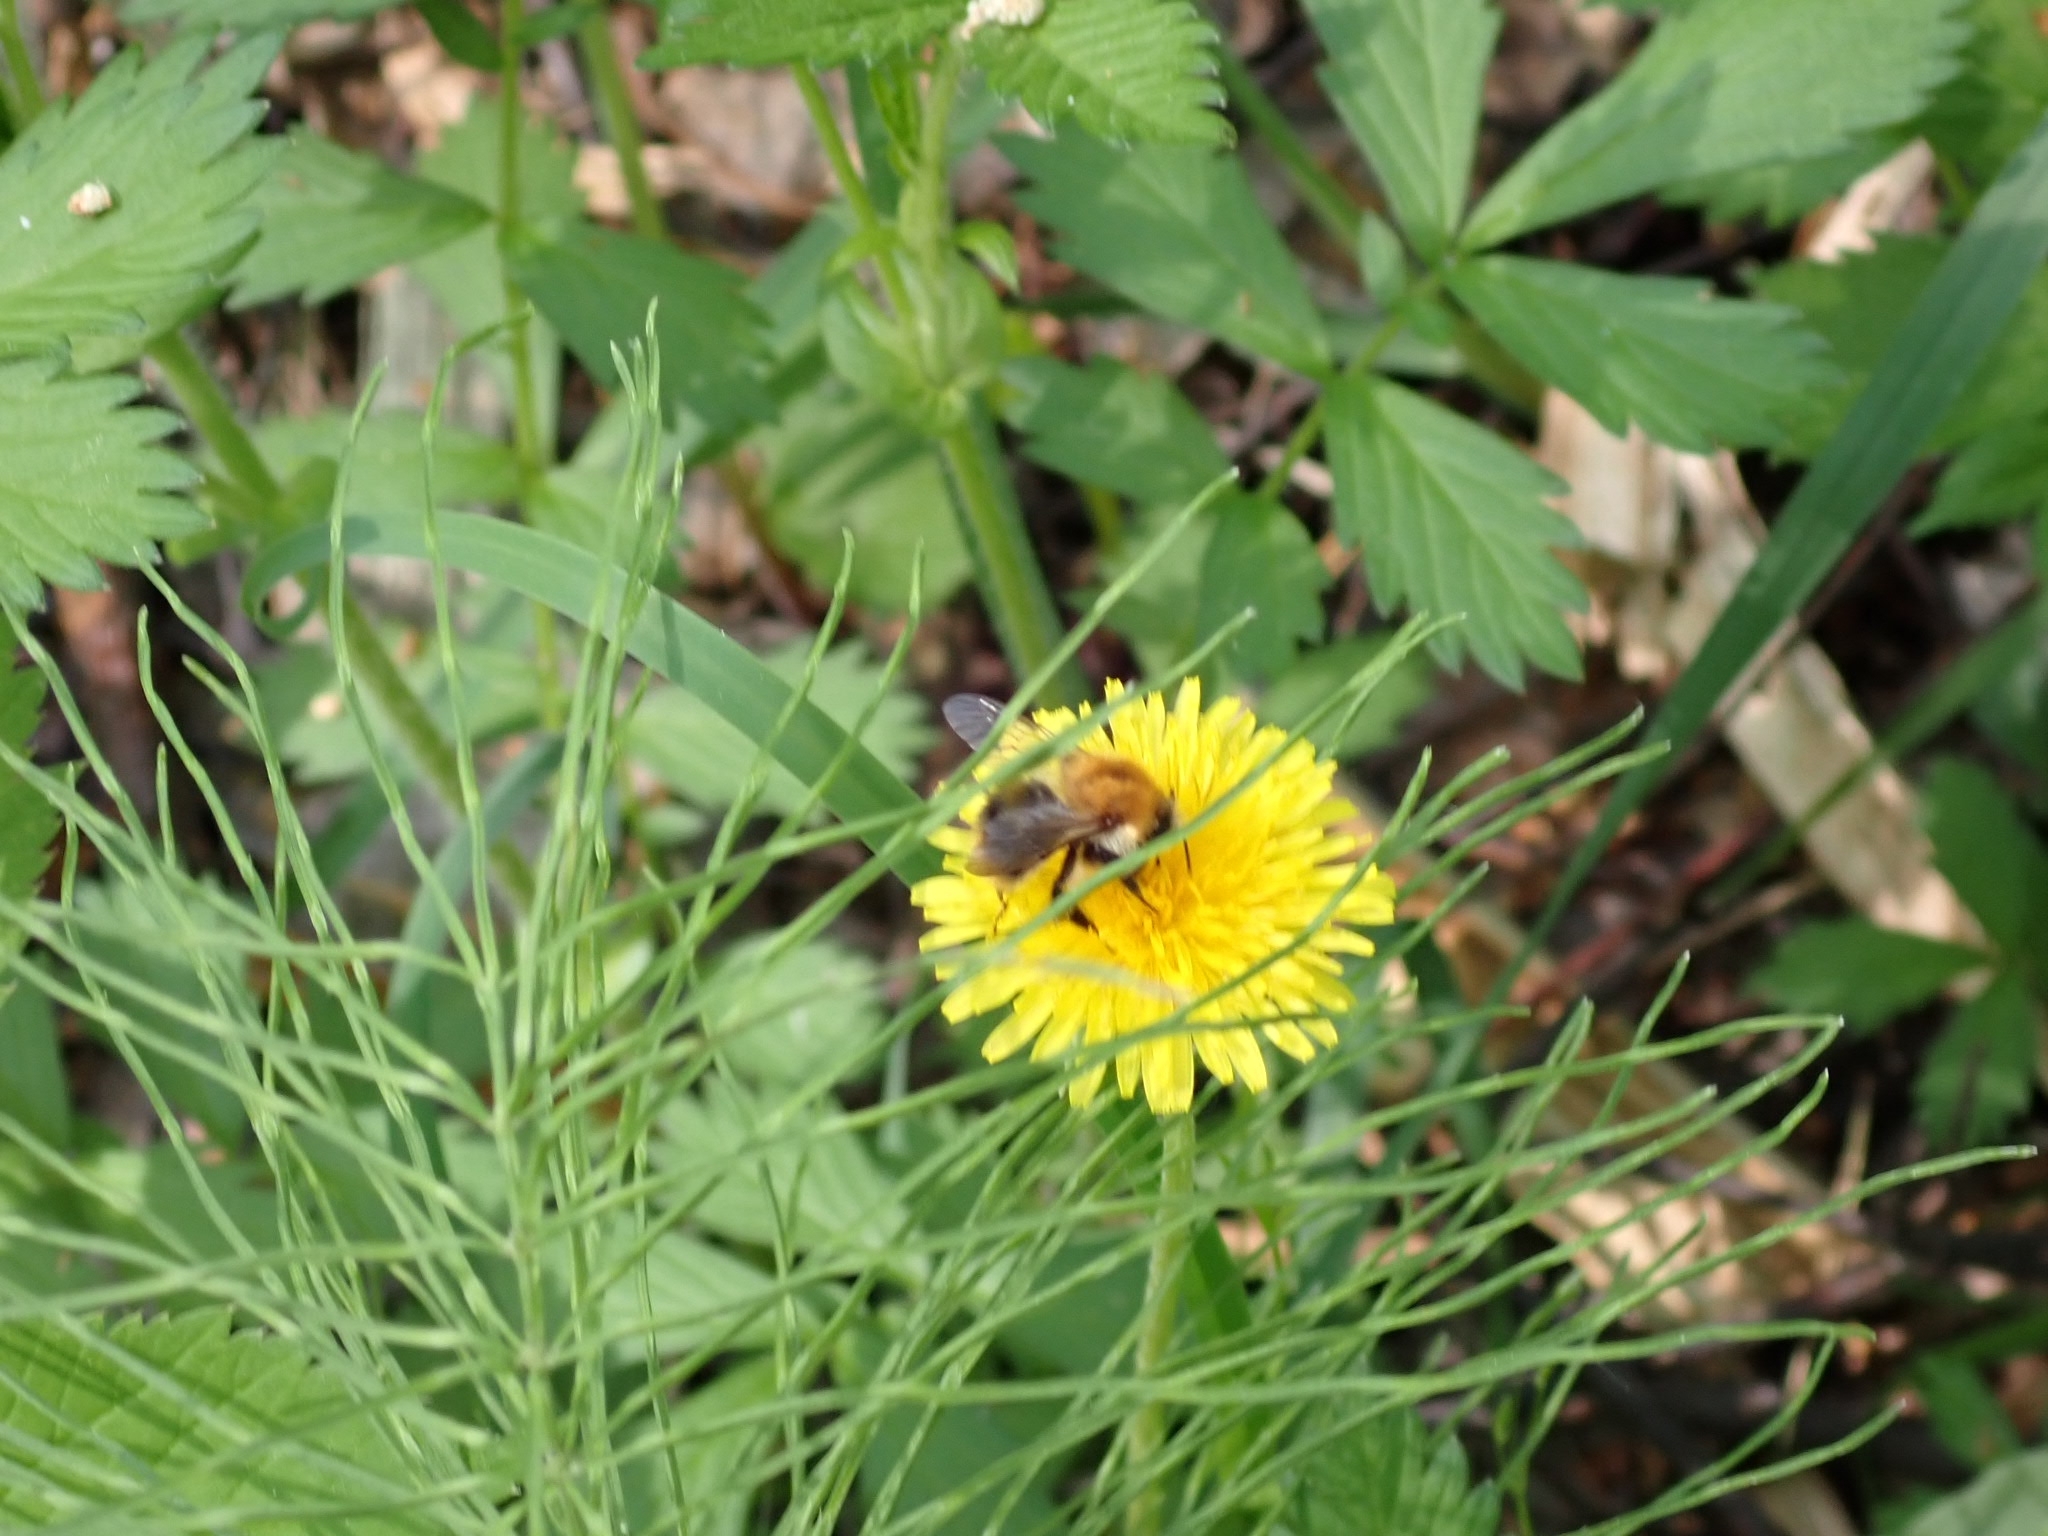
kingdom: Animalia
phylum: Arthropoda
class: Insecta
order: Hymenoptera
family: Apidae
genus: Bombus
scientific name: Bombus pascuorum
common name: Common carder bee
